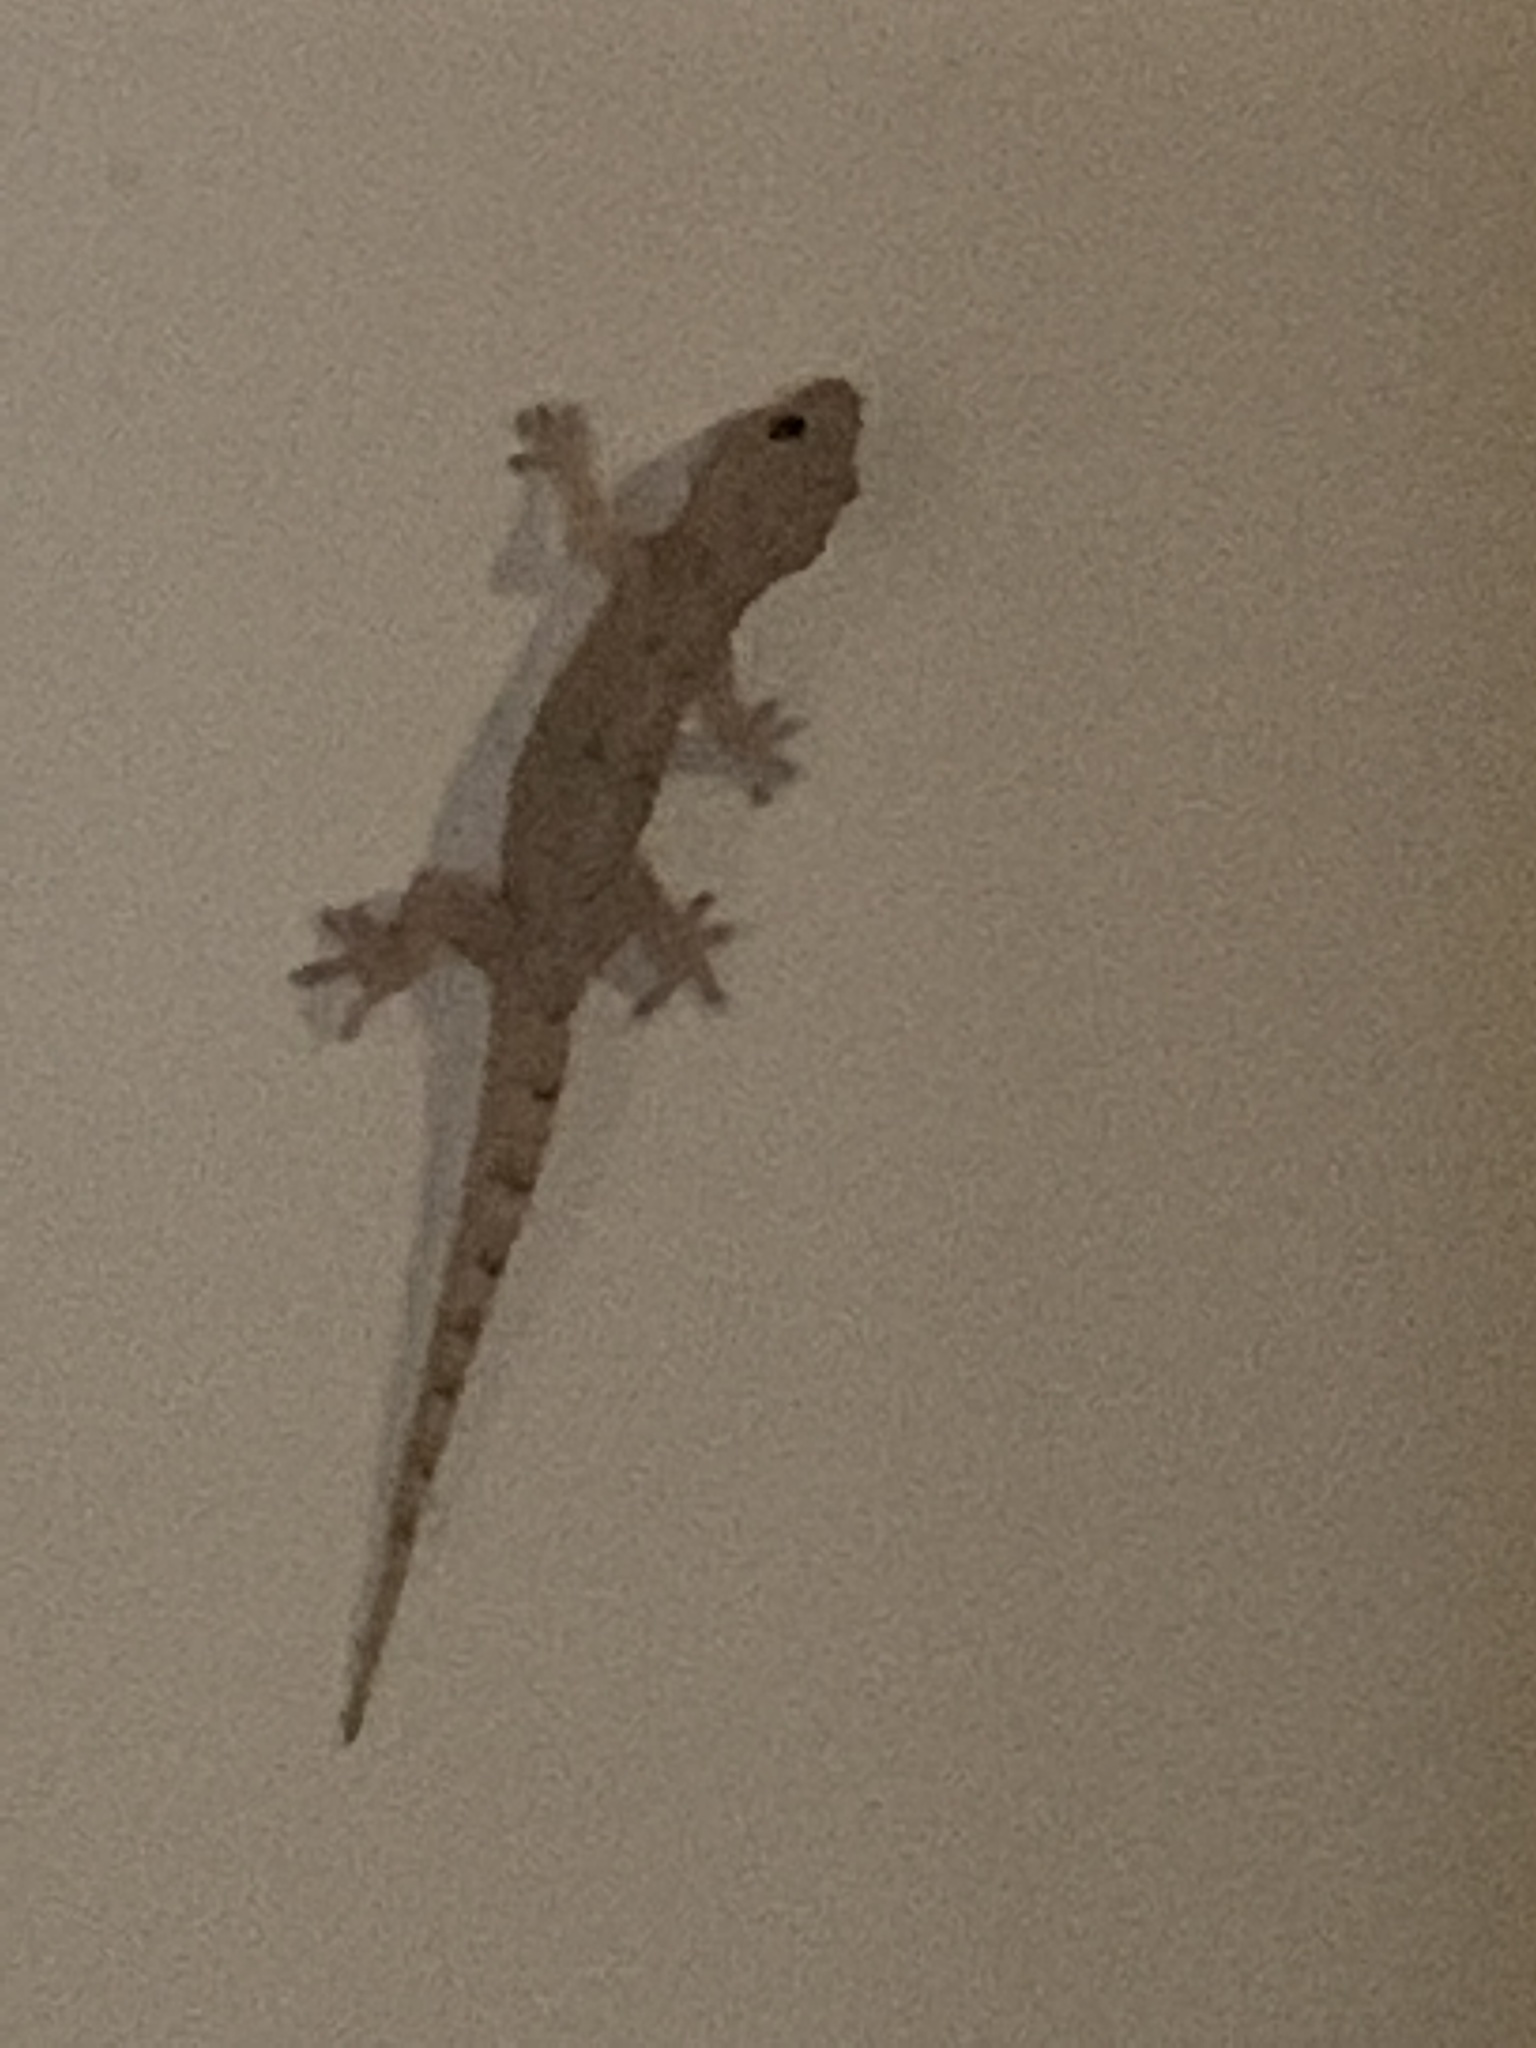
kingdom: Animalia
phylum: Chordata
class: Squamata
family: Gekkonidae
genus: Hemidactylus
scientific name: Hemidactylus mabouia
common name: House gecko
